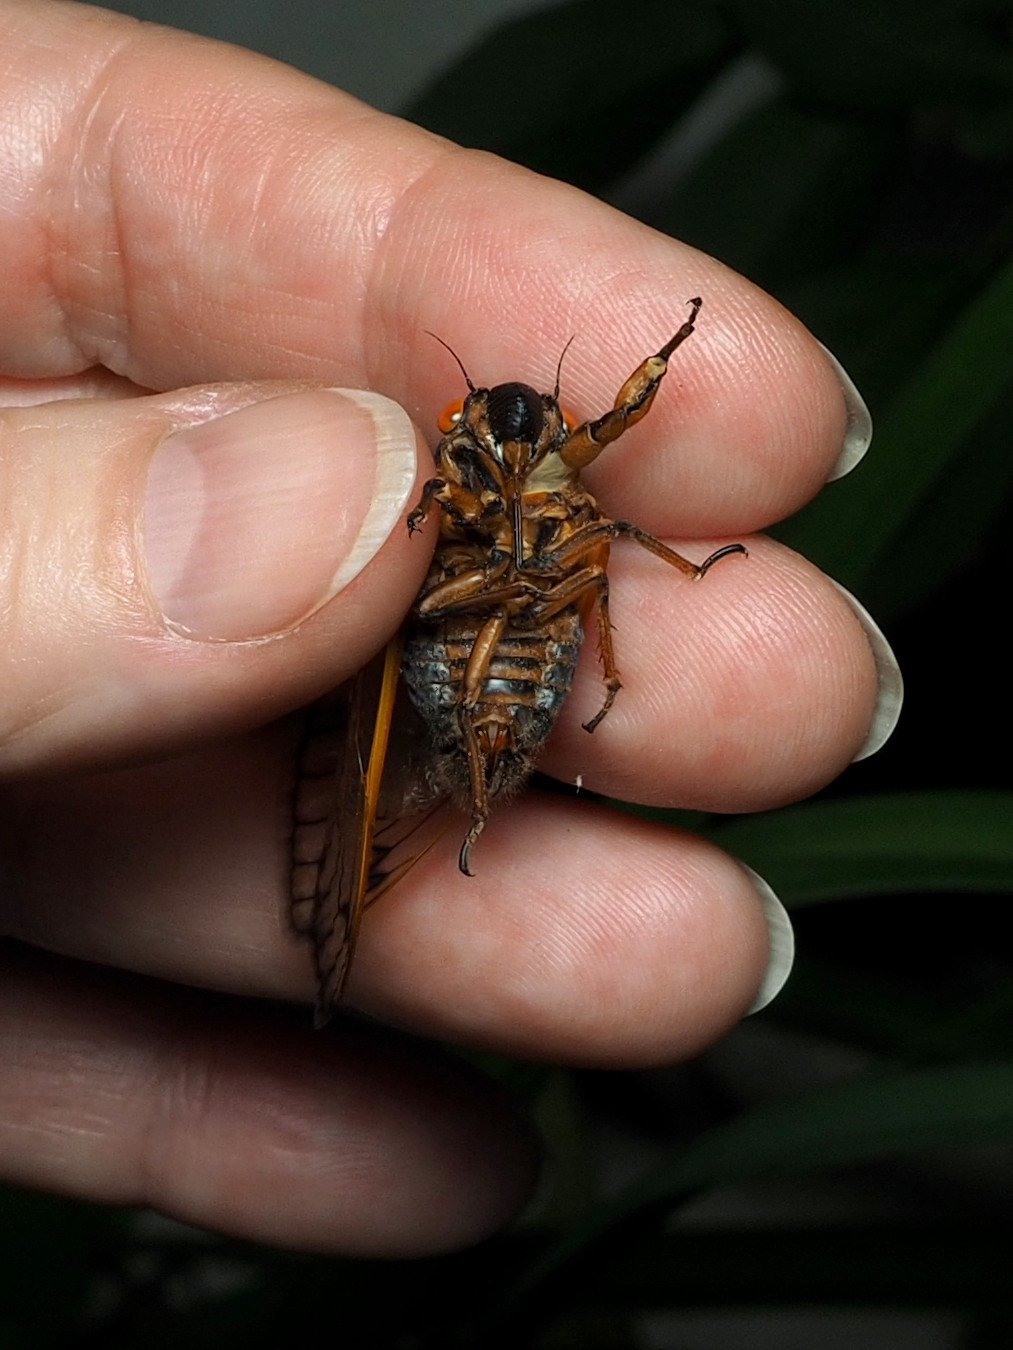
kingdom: Animalia
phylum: Arthropoda
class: Insecta
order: Hemiptera
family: Cicadidae
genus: Magicicada
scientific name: Magicicada septendecim
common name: Periodical cicada
